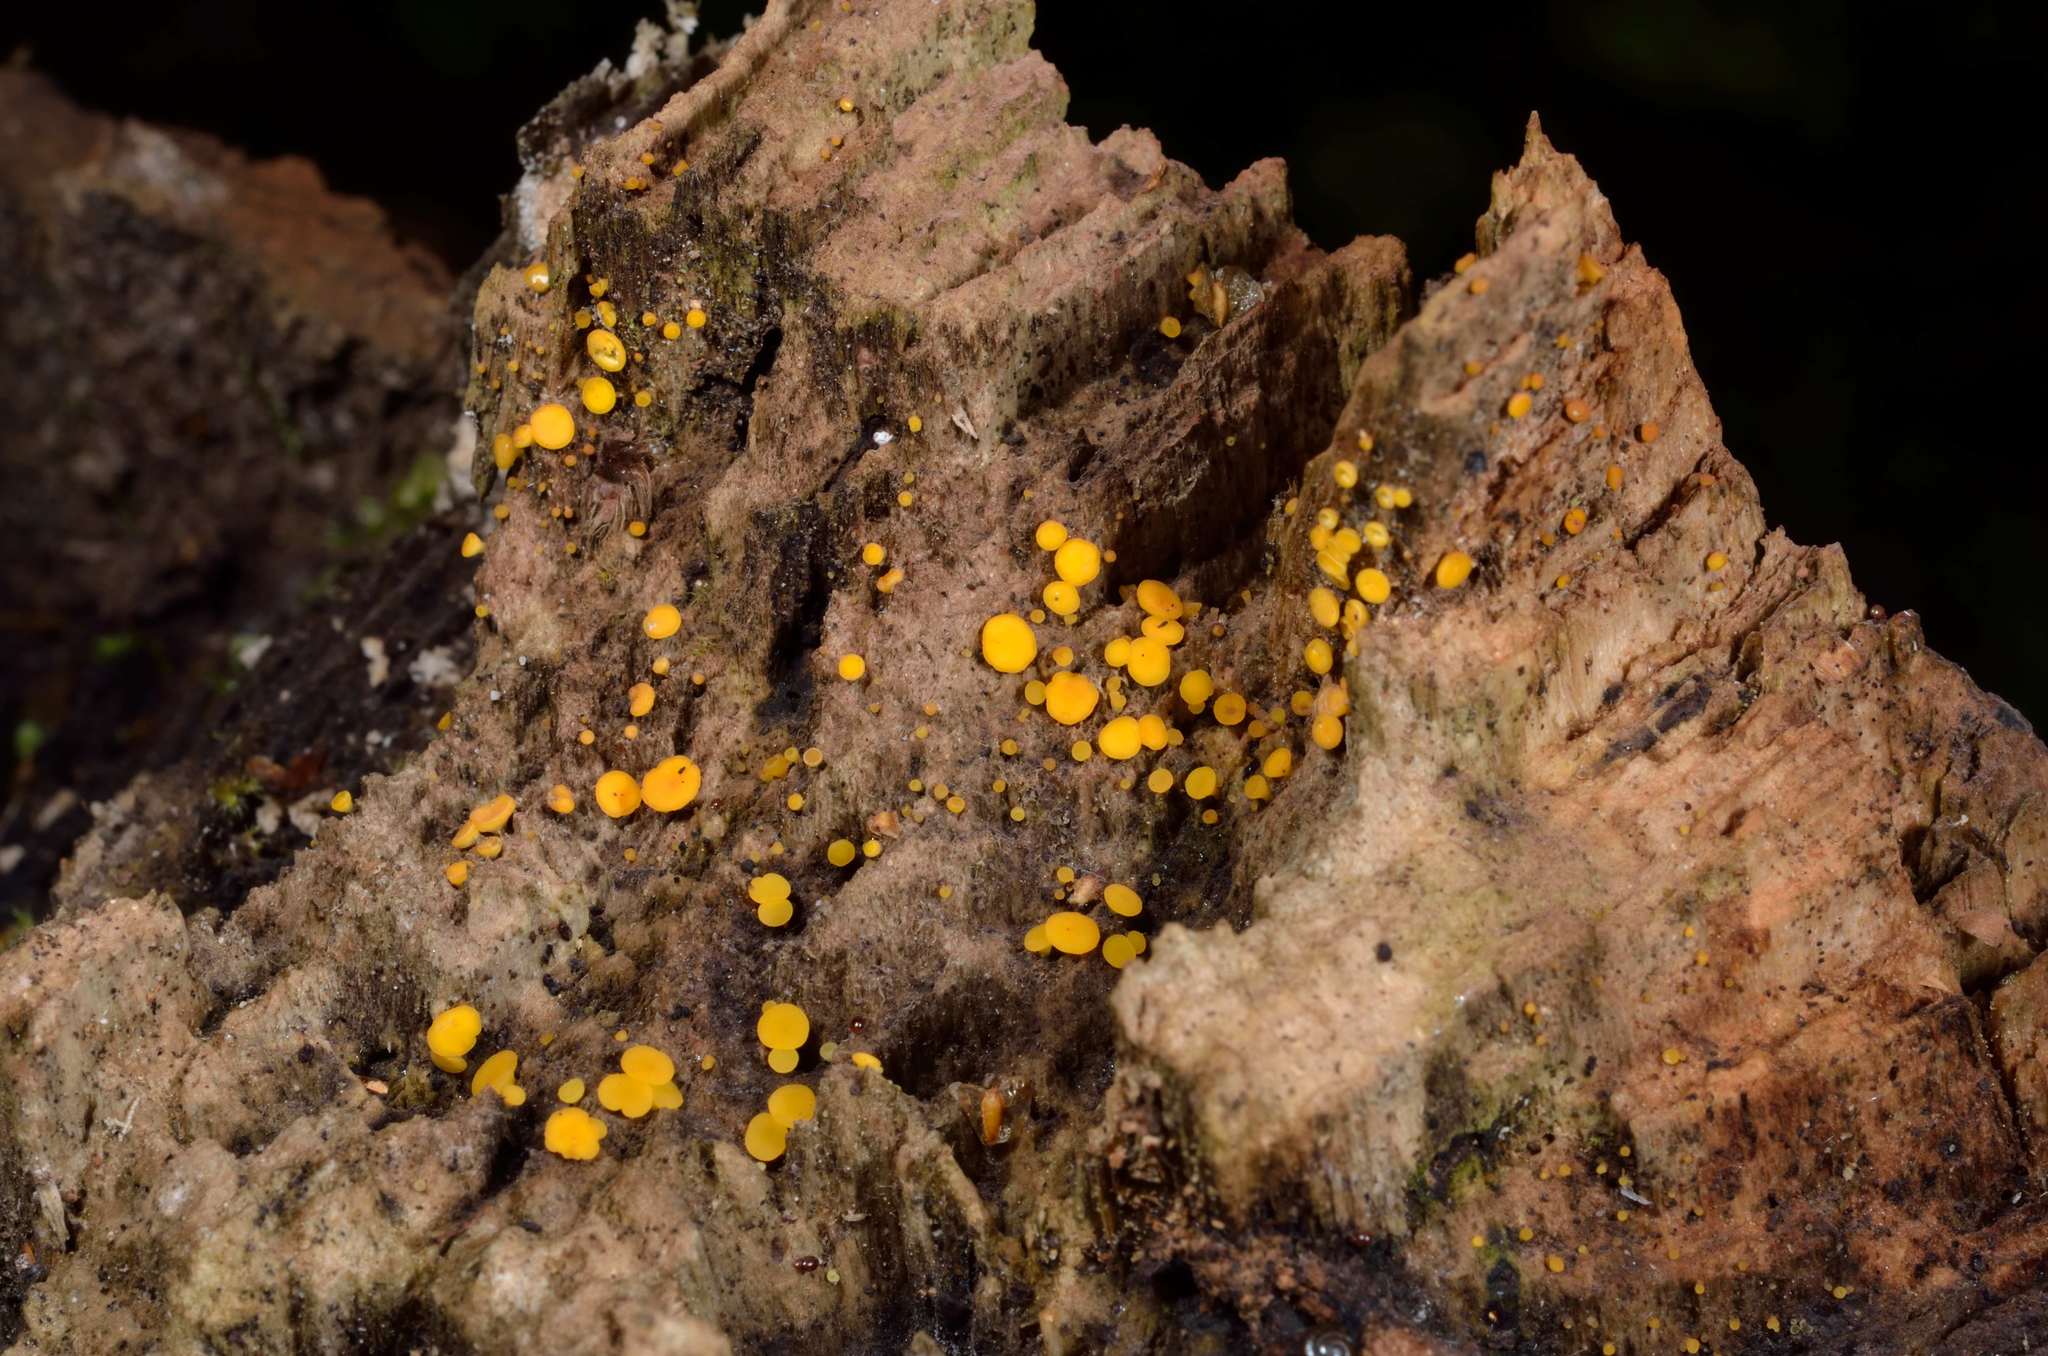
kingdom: Fungi
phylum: Ascomycota
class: Leotiomycetes
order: Helotiales
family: Pezizellaceae
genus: Calycina
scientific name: Calycina citrina
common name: Yellow fairy cups
